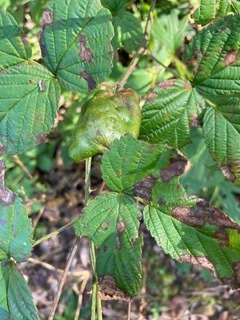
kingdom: Animalia
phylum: Arthropoda
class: Insecta
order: Hymenoptera
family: Cynipidae
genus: Diastrophus
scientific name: Diastrophus
